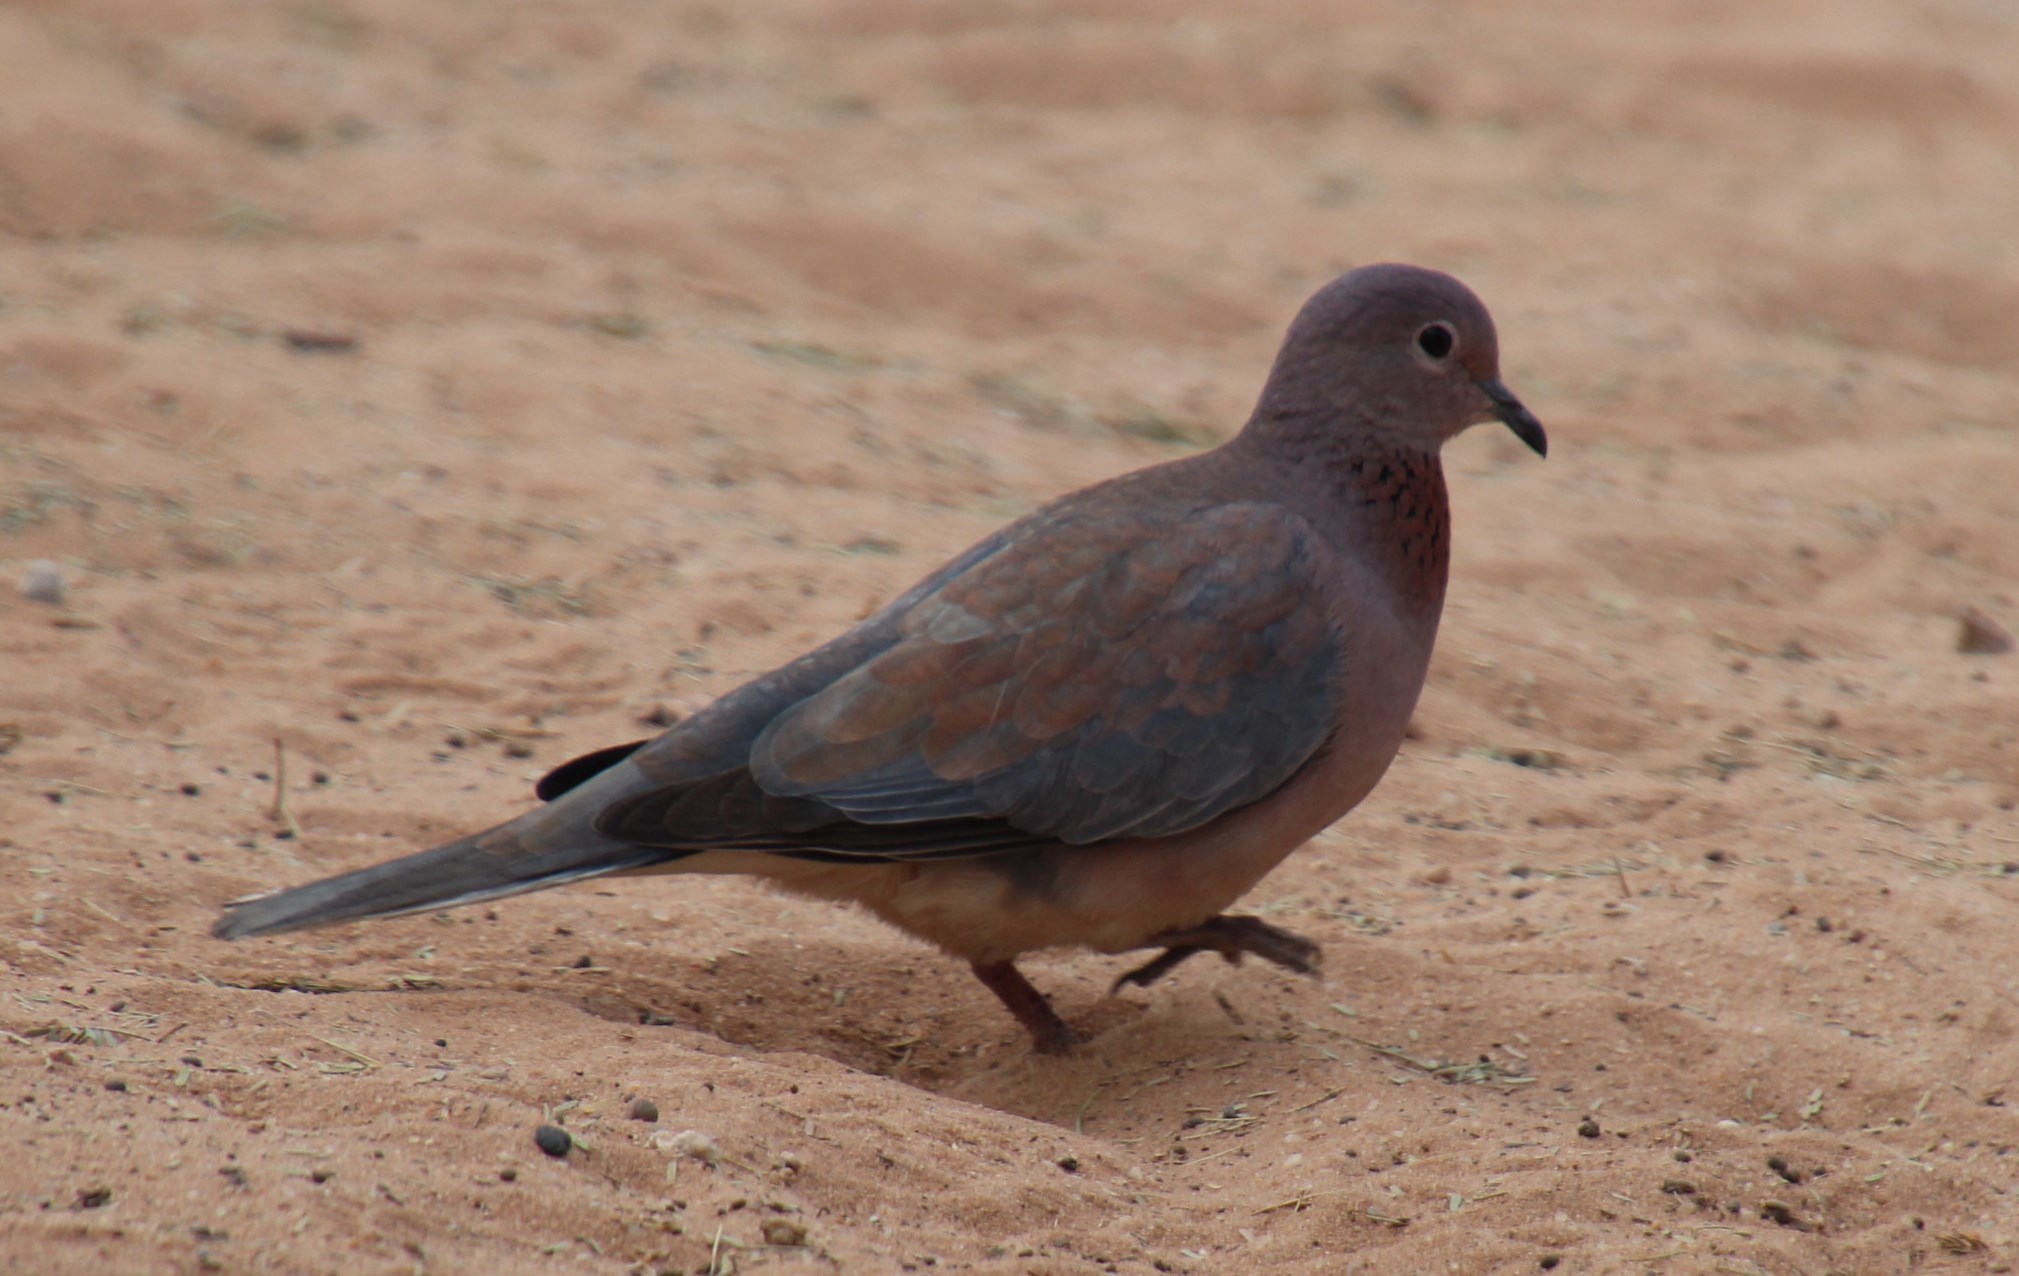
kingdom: Animalia
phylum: Chordata
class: Aves
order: Columbiformes
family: Columbidae
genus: Spilopelia
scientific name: Spilopelia senegalensis
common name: Laughing dove
